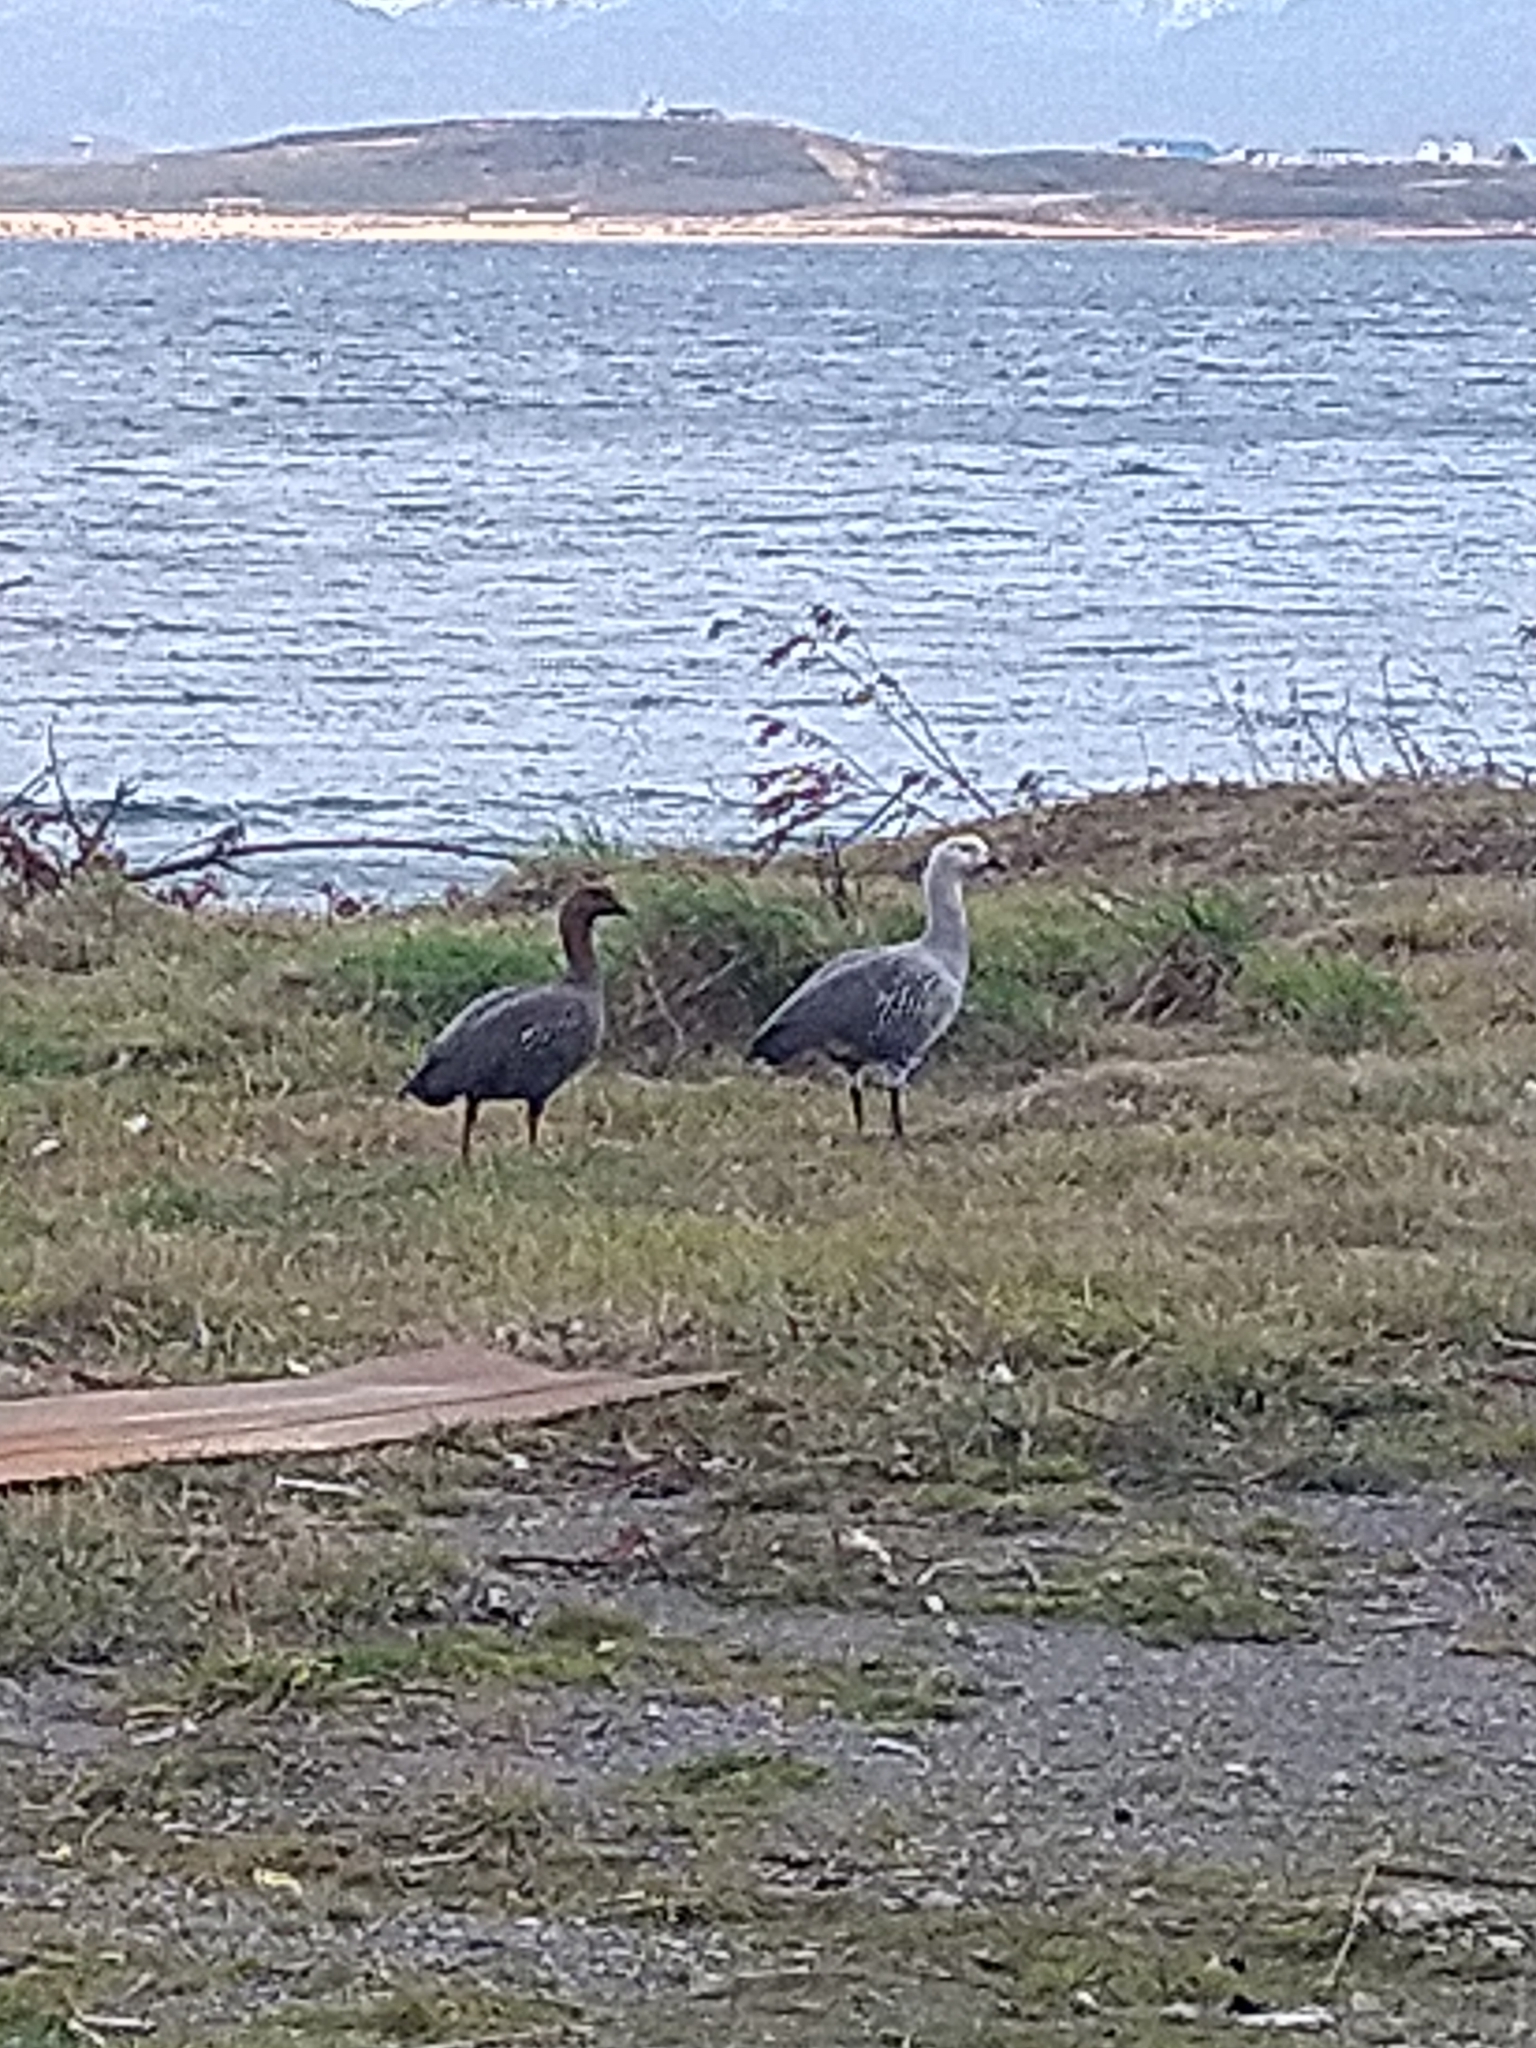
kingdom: Animalia
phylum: Chordata
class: Aves
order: Anseriformes
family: Anatidae
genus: Chloephaga
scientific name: Chloephaga picta
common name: Upland goose
